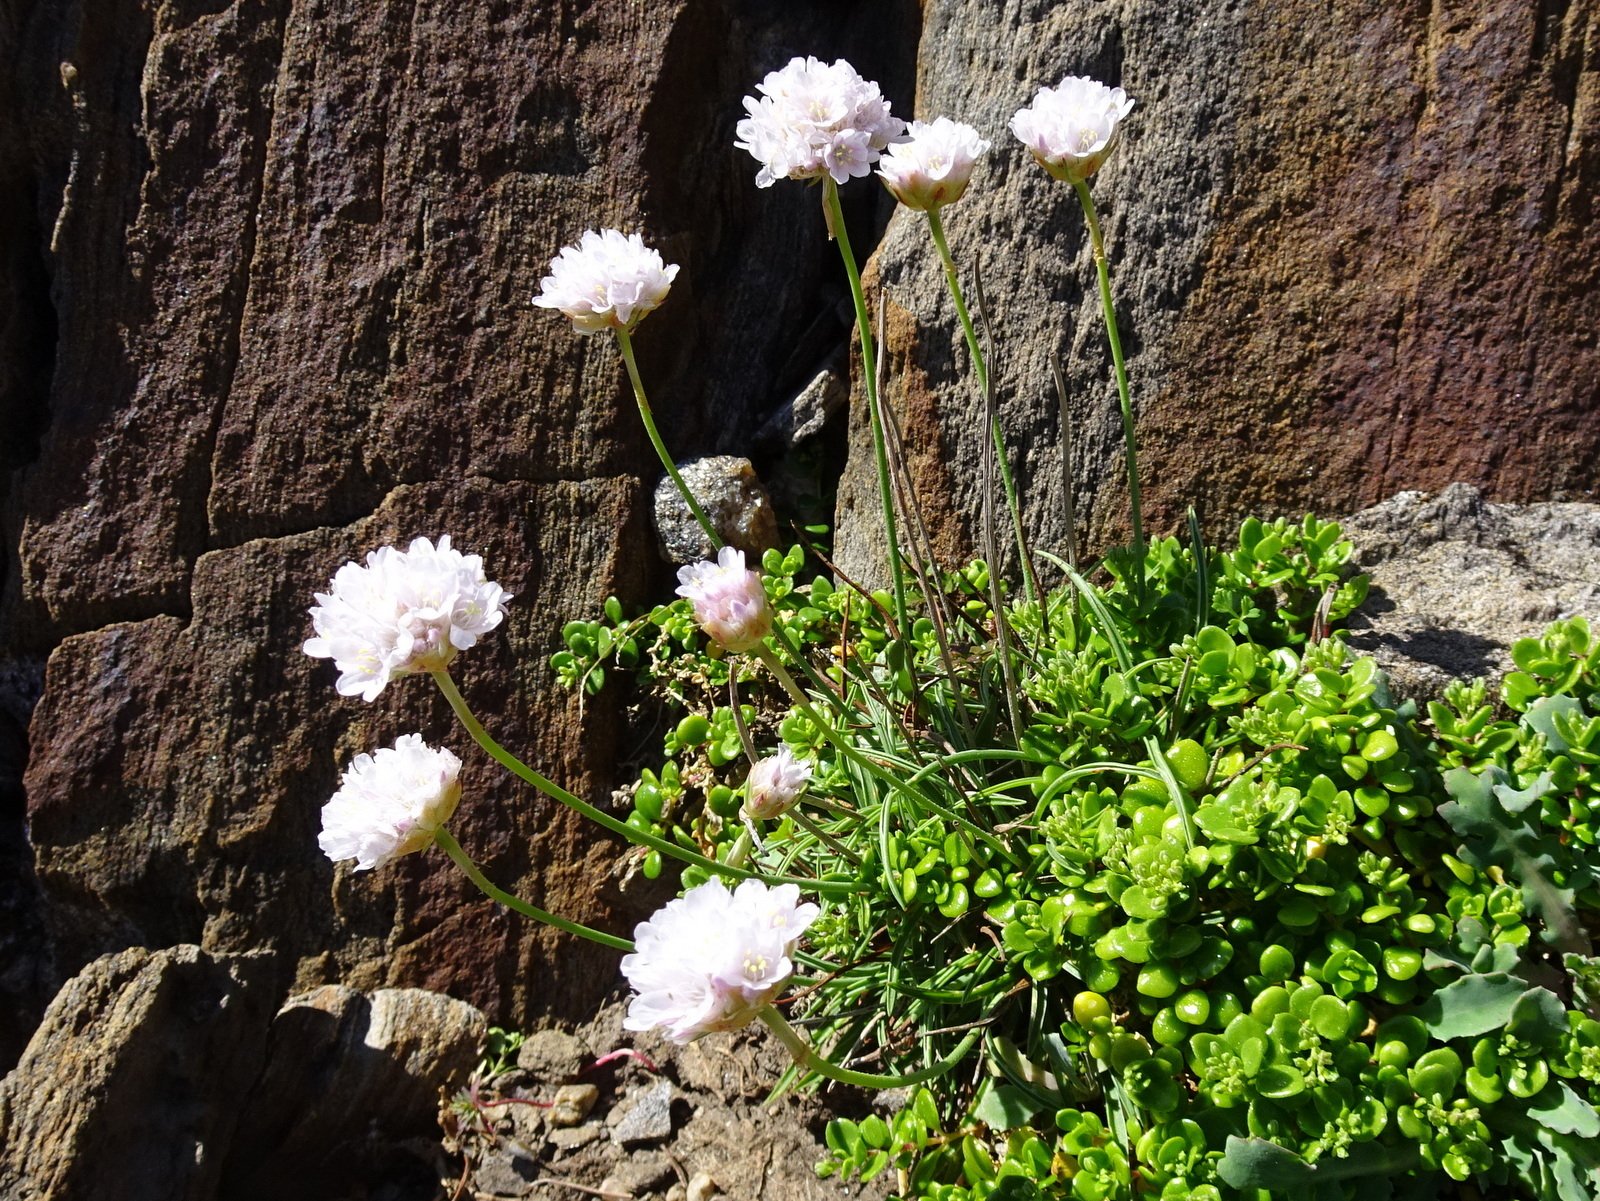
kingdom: Plantae
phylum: Tracheophyta
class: Magnoliopsida
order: Caryophyllales
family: Plumbaginaceae
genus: Armeria
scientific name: Armeria ruscinonensis
